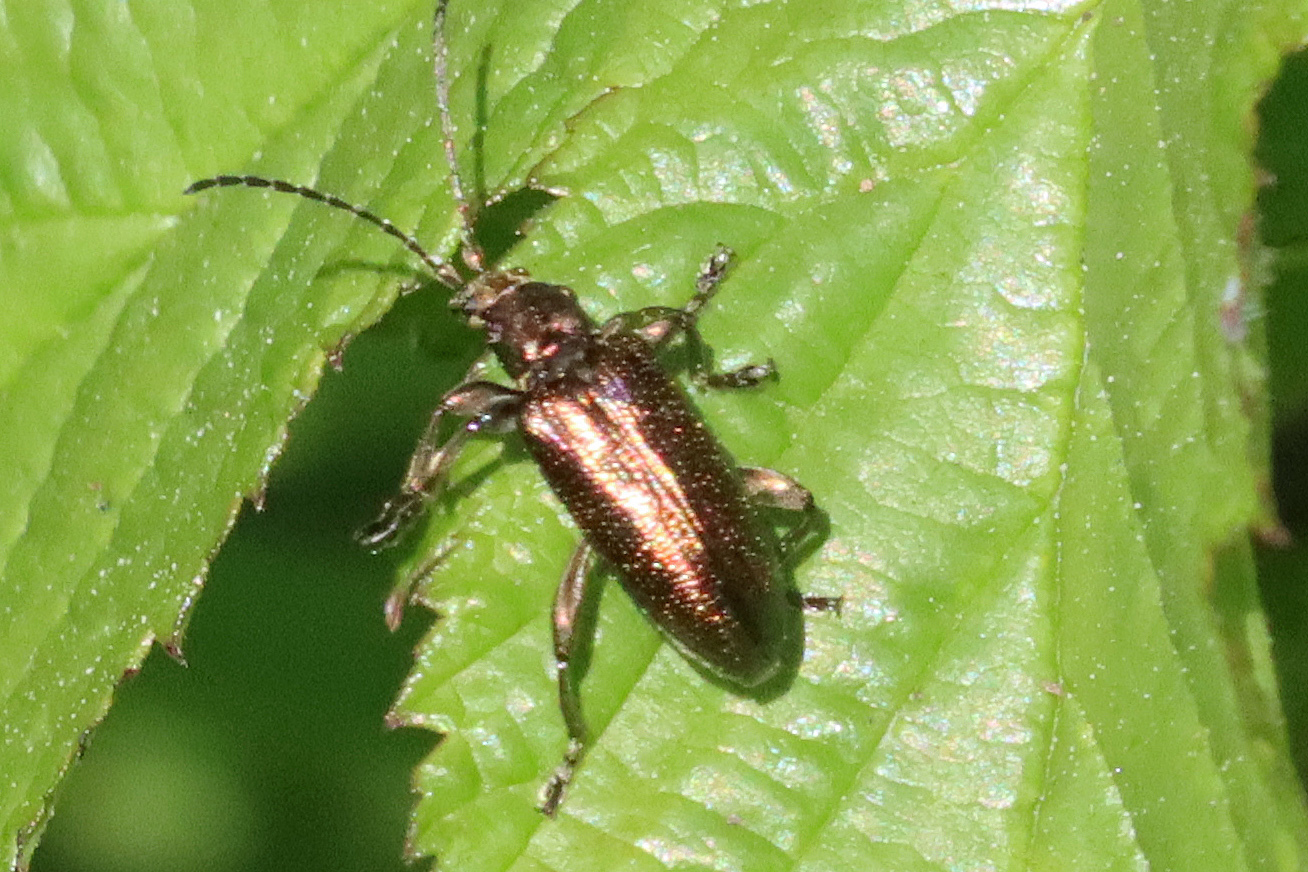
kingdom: Animalia
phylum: Arthropoda
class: Insecta
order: Coleoptera
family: Chrysomelidae
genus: Plateumaris
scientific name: Plateumaris sericea
